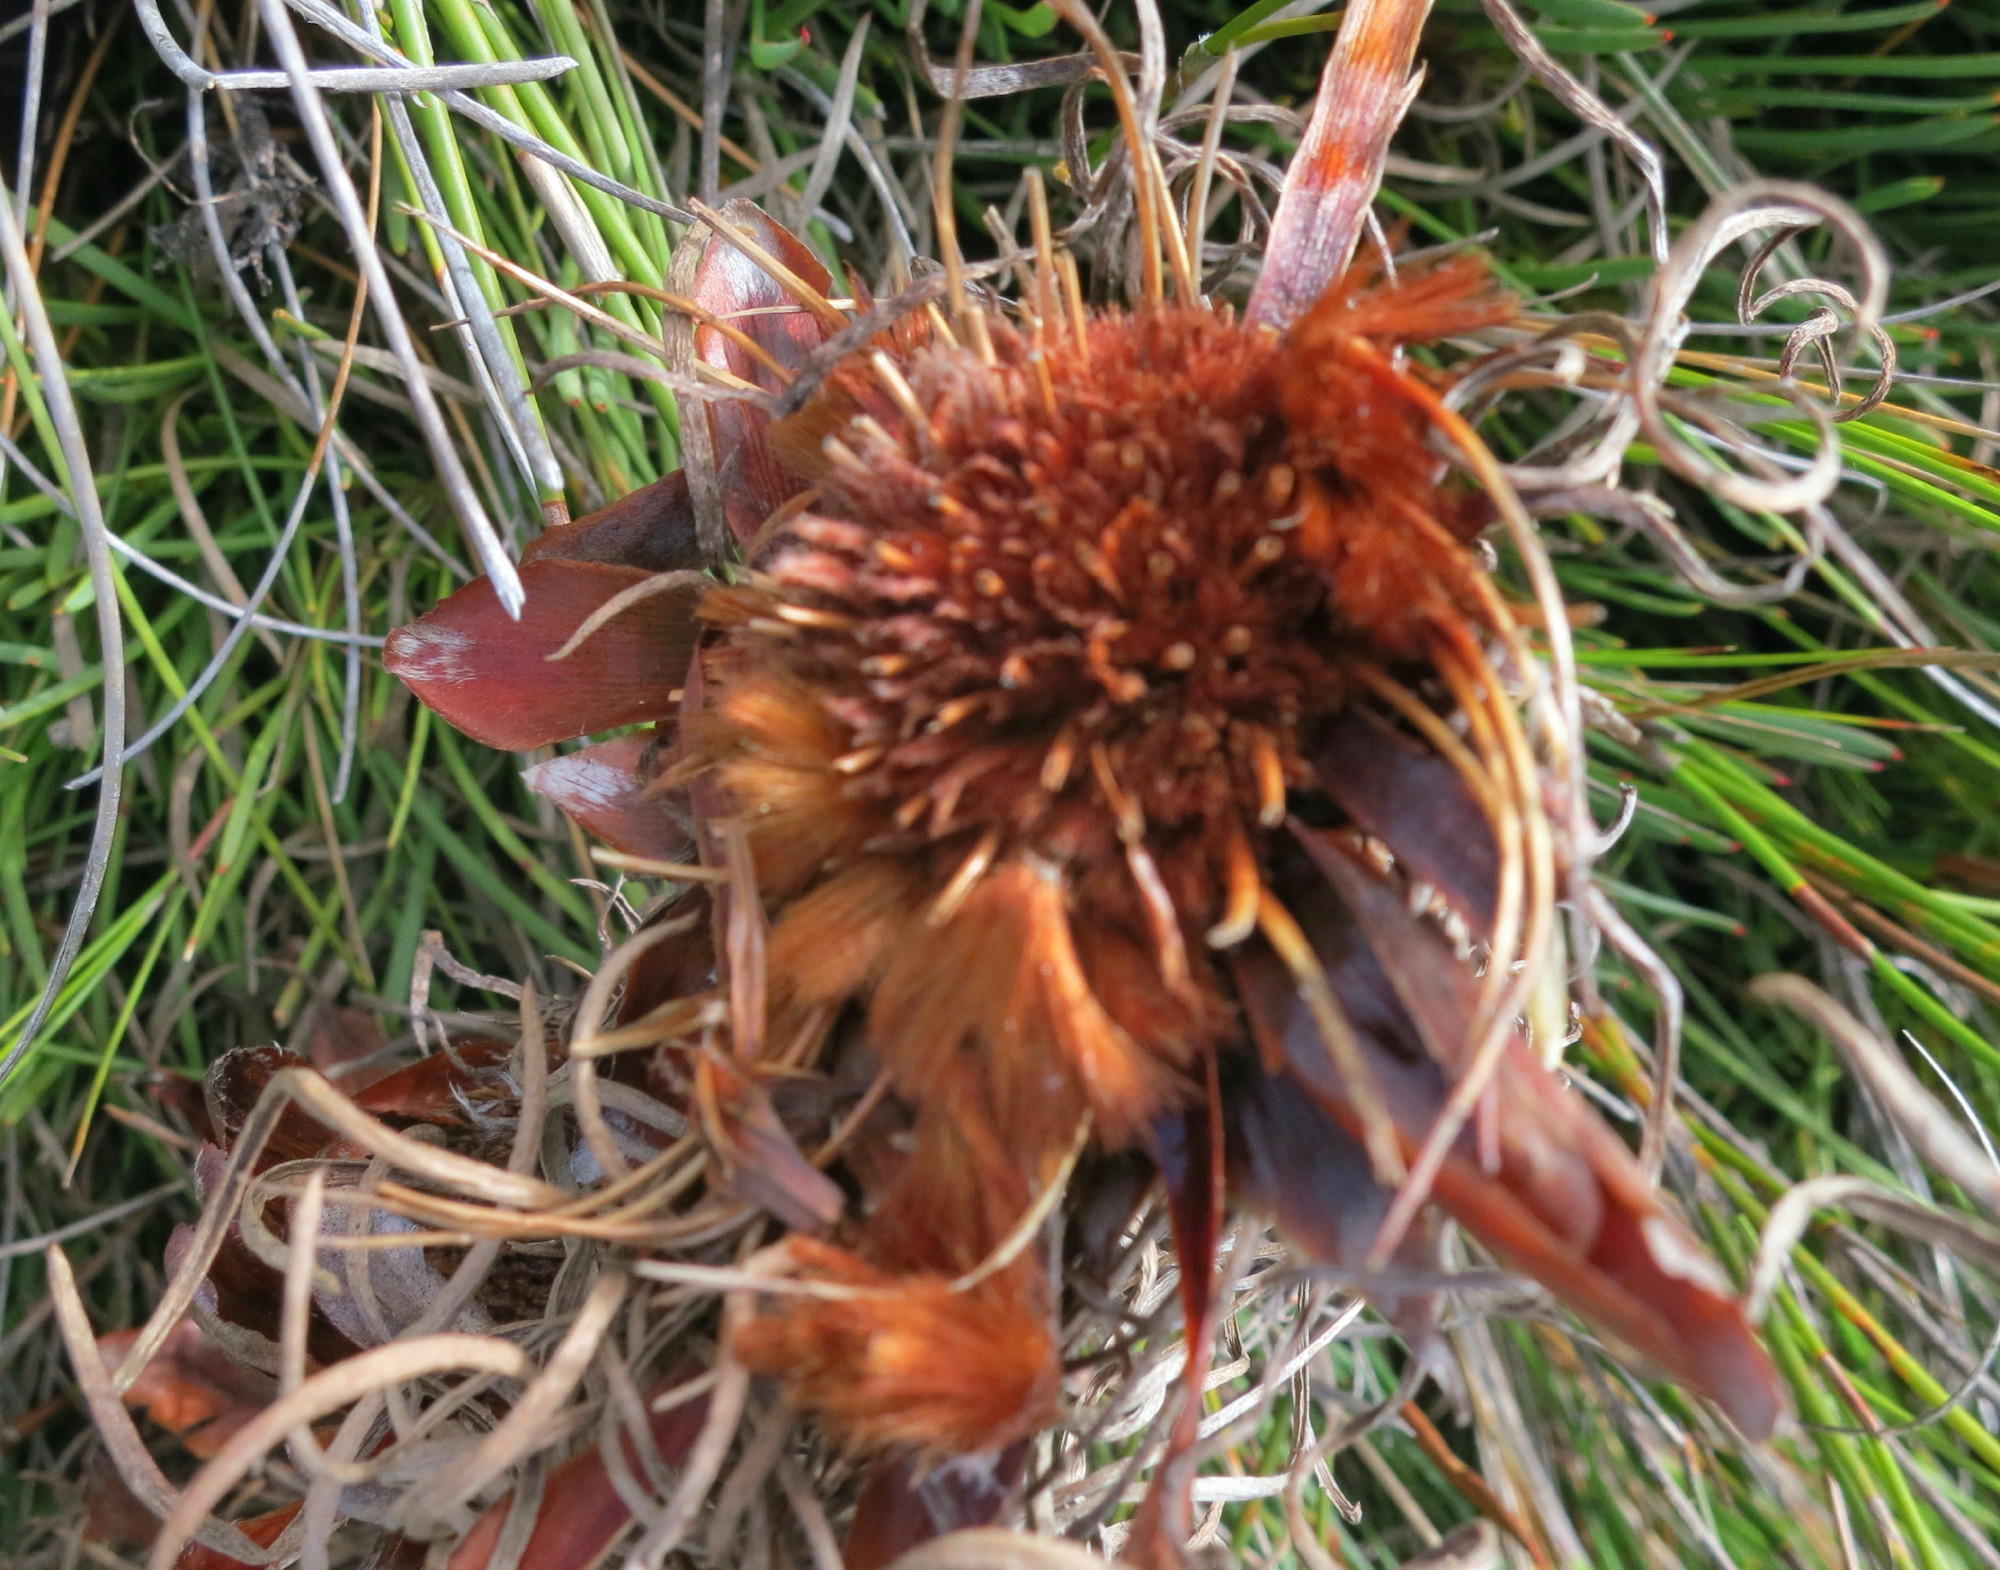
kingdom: Plantae
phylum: Tracheophyta
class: Magnoliopsida
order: Proteales
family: Proteaceae
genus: Protea
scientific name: Protea montana
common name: Swartberg sugarbush
